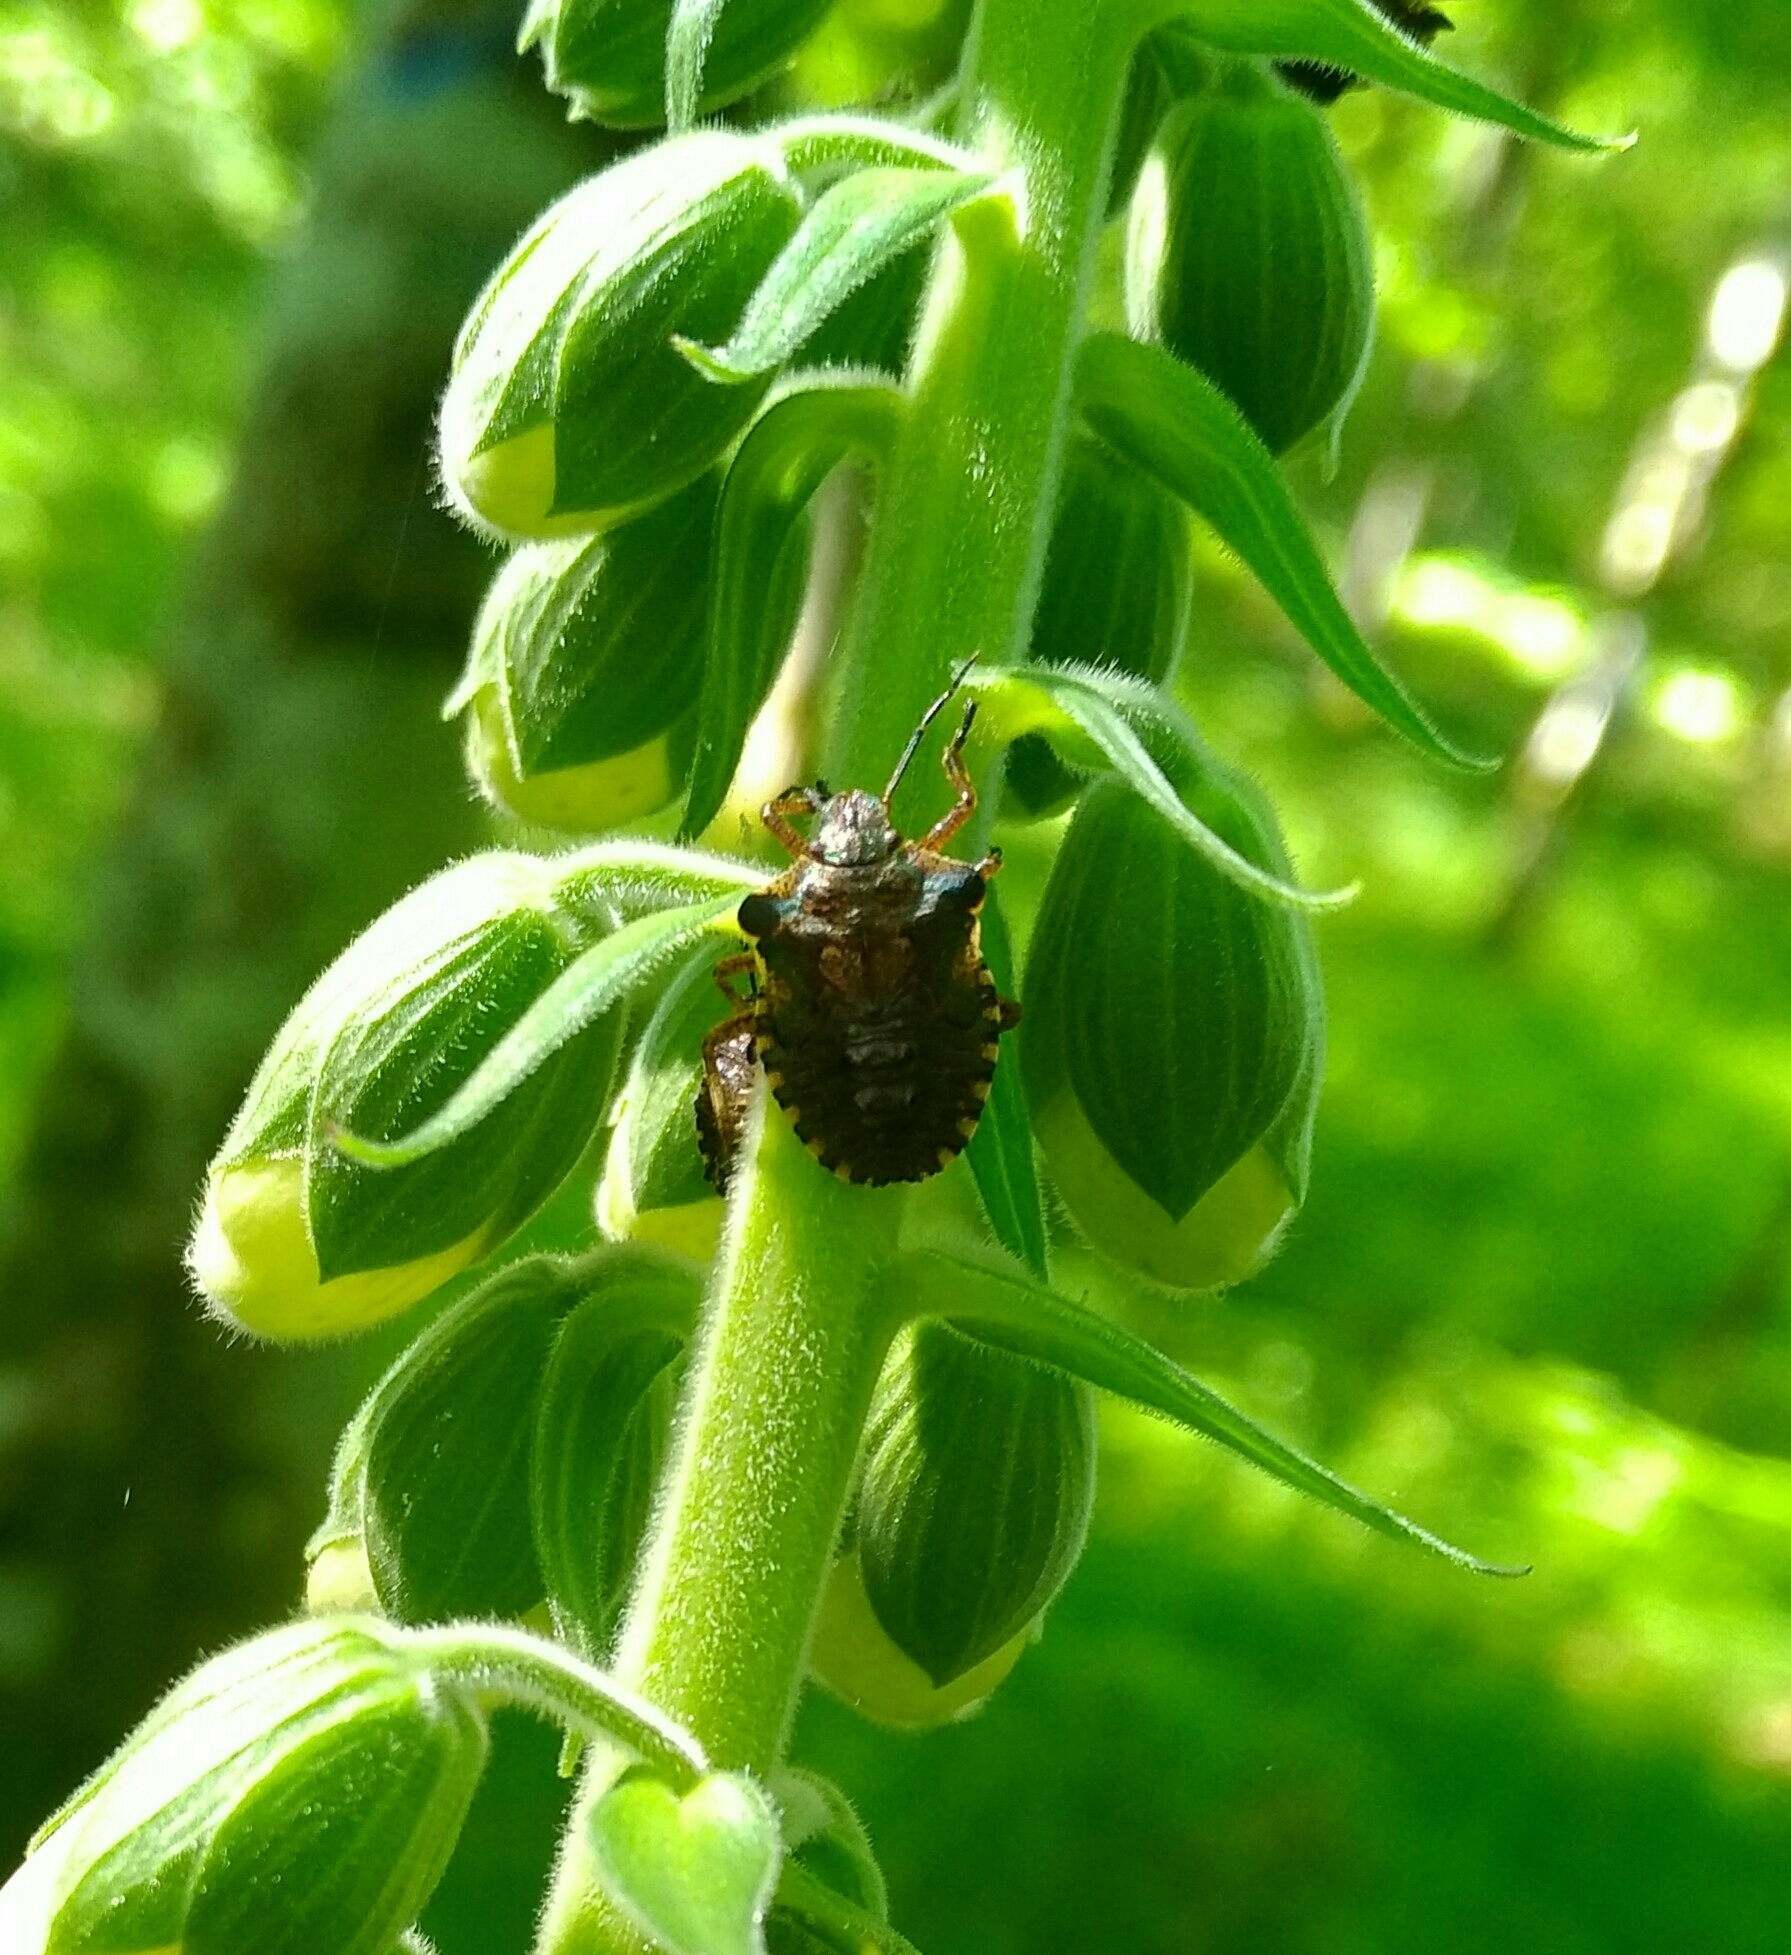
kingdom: Animalia
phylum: Arthropoda
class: Insecta
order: Hemiptera
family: Pentatomidae
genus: Pentatoma
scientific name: Pentatoma rufipes
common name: Forest bug
